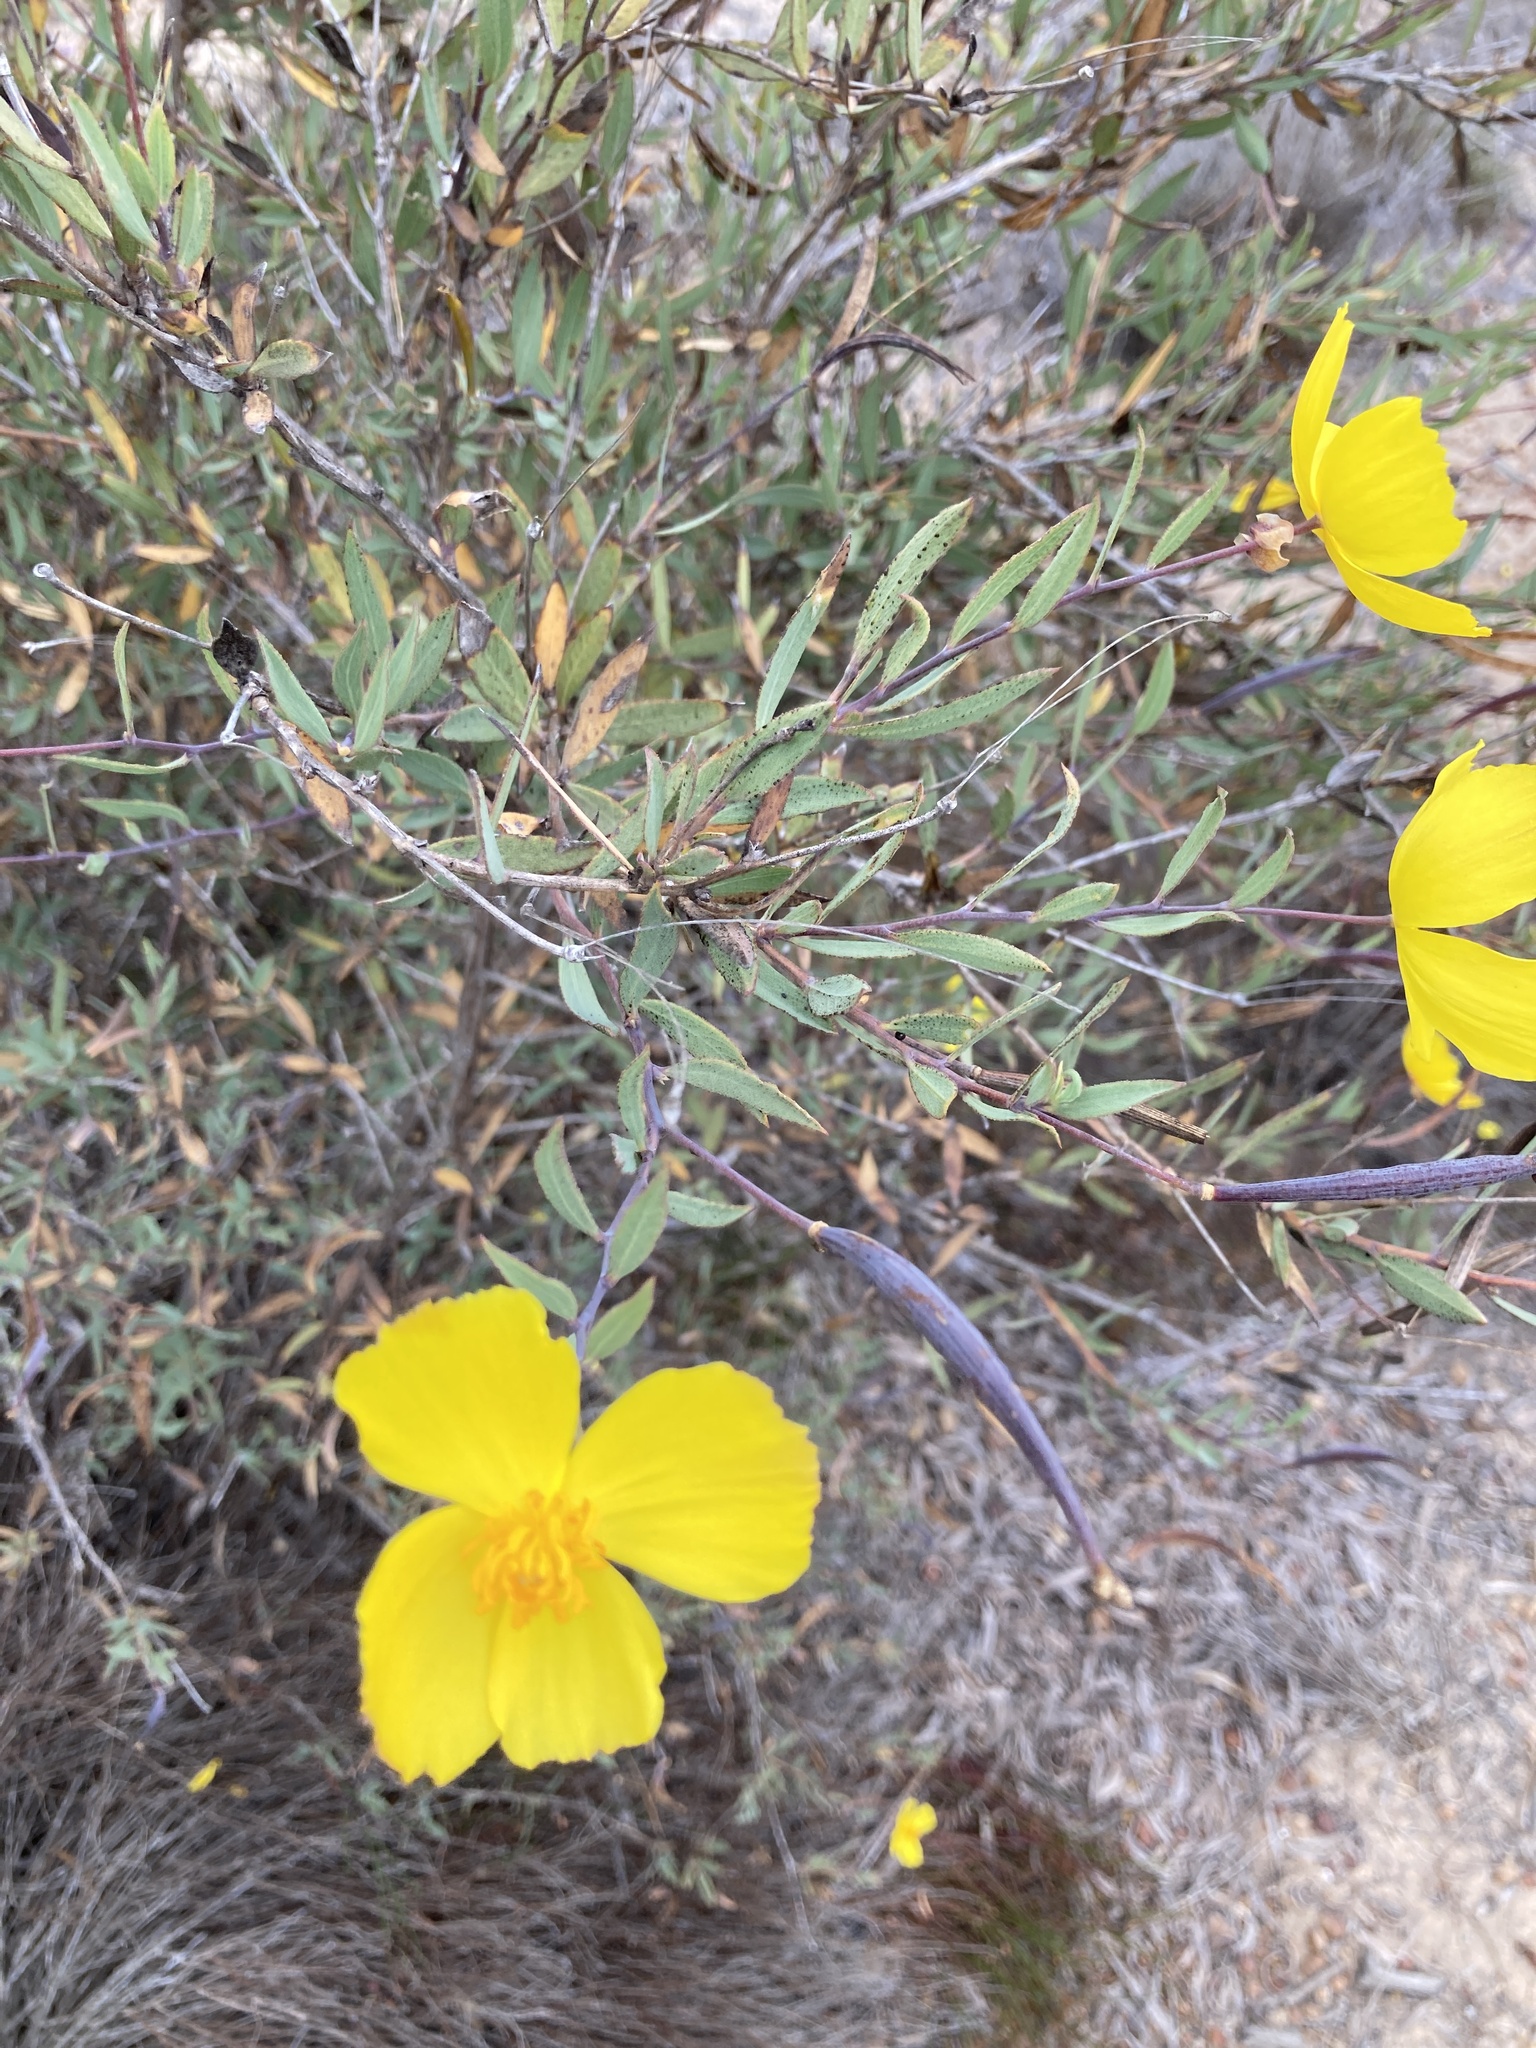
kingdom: Plantae
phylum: Tracheophyta
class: Magnoliopsida
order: Ranunculales
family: Papaveraceae
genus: Dendromecon
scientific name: Dendromecon rigida
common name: Tree poppy
